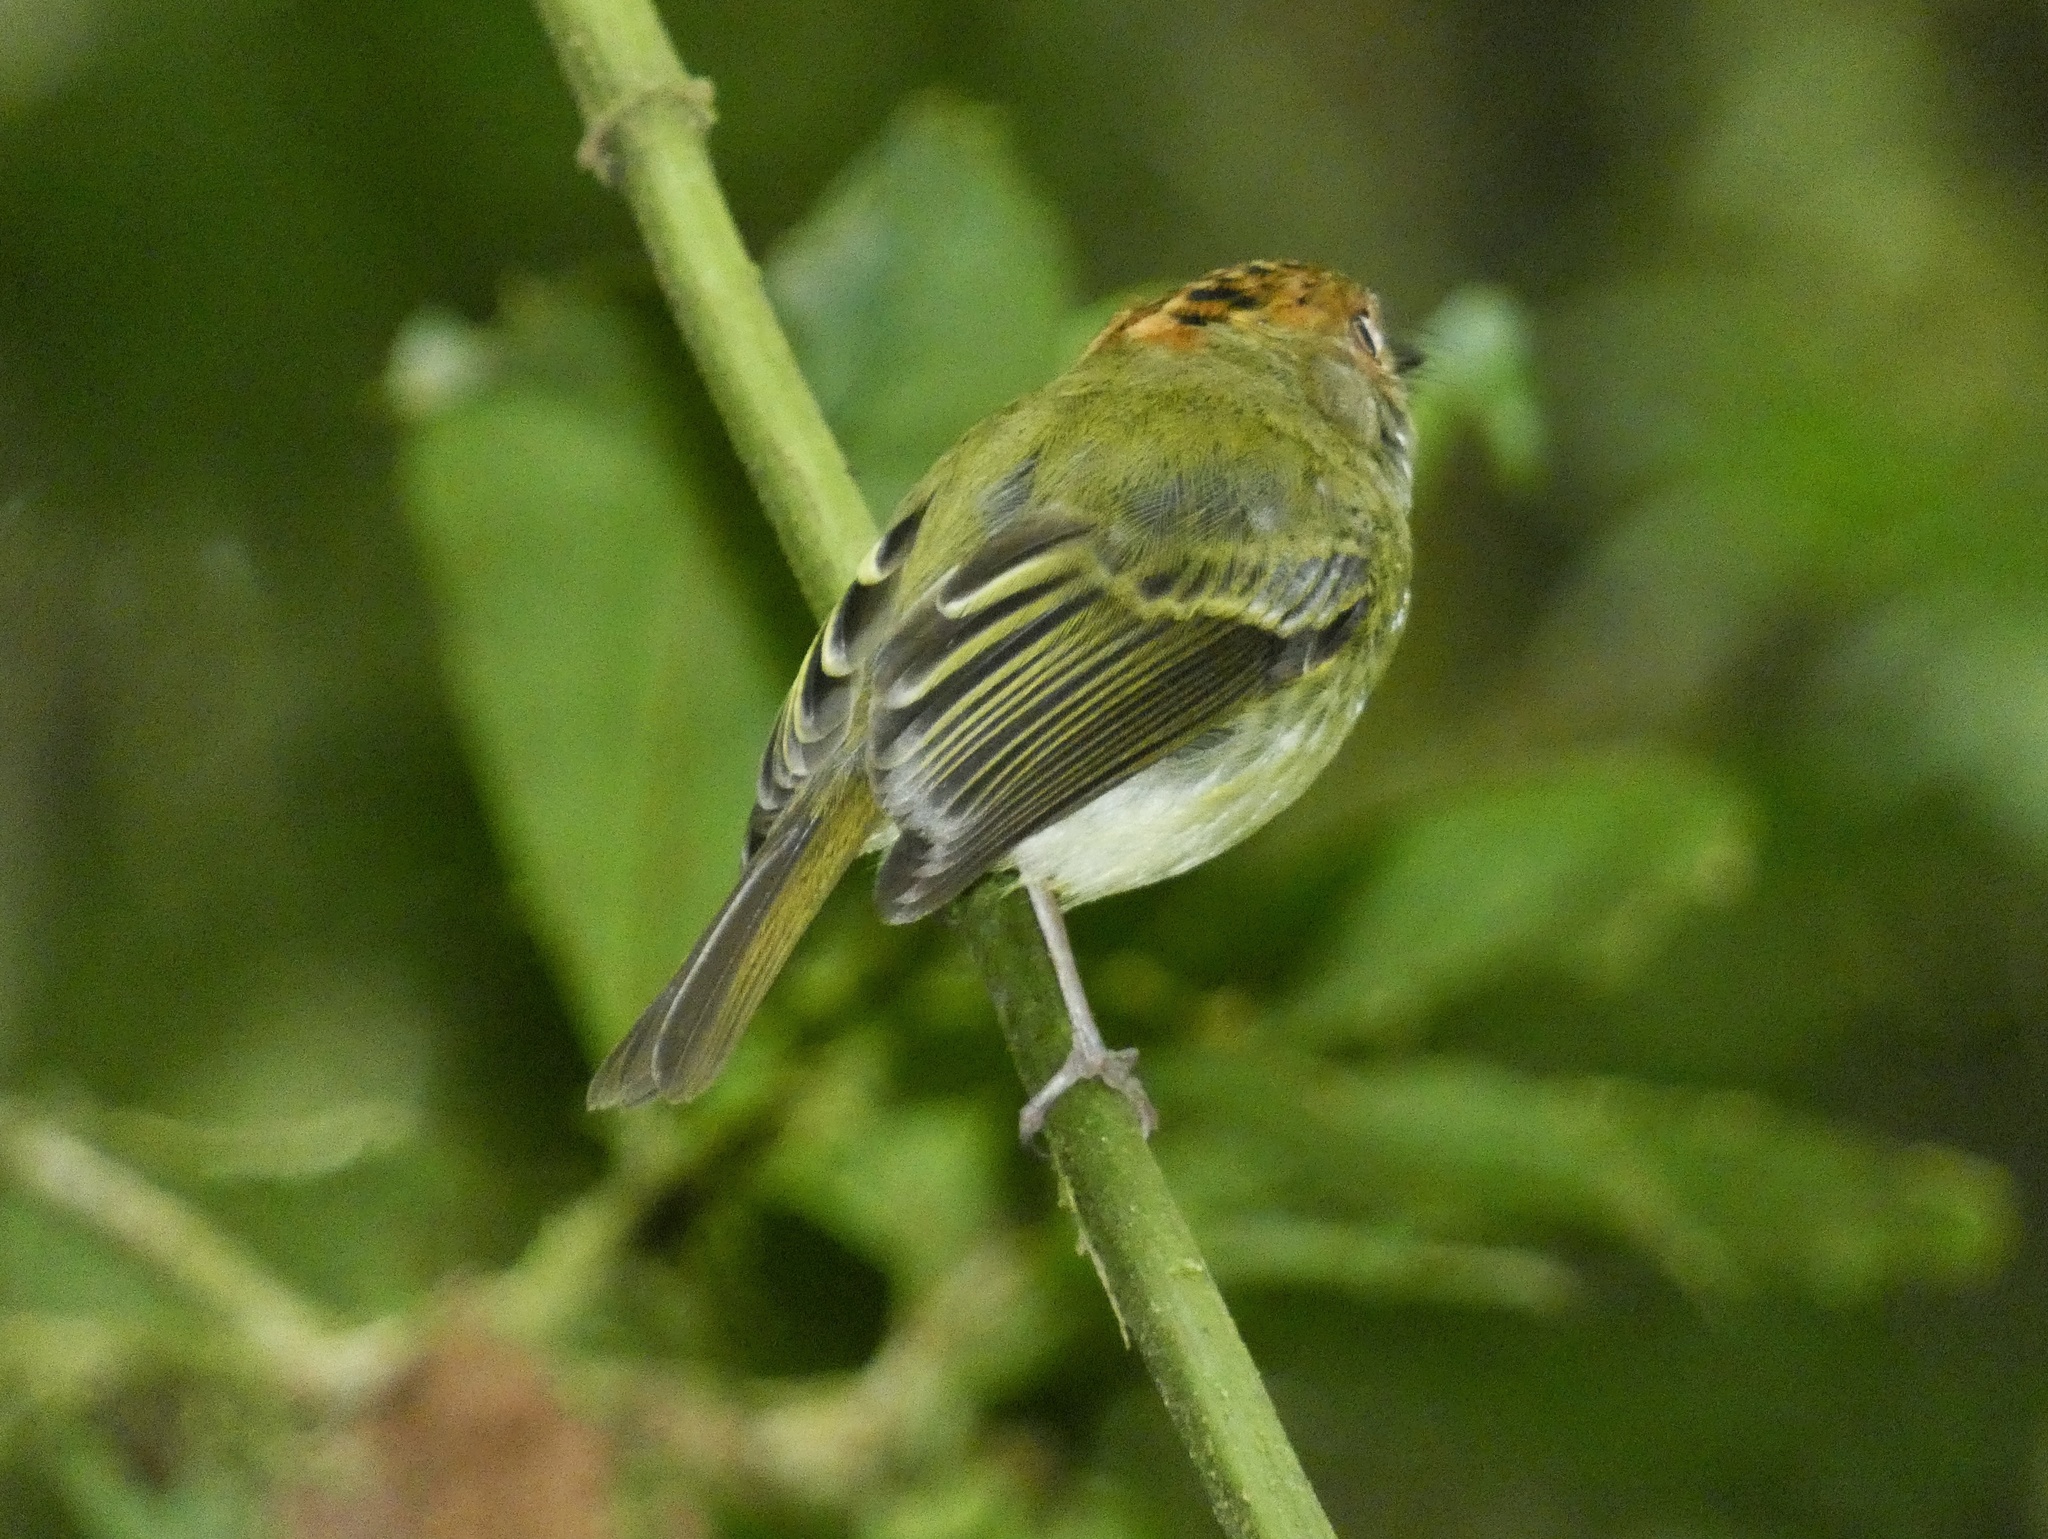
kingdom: Animalia
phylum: Chordata
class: Aves
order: Passeriformes
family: Tyrannidae
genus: Lophotriccus
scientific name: Lophotriccus pileatus
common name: Scale-crested pygmy-tyrant
